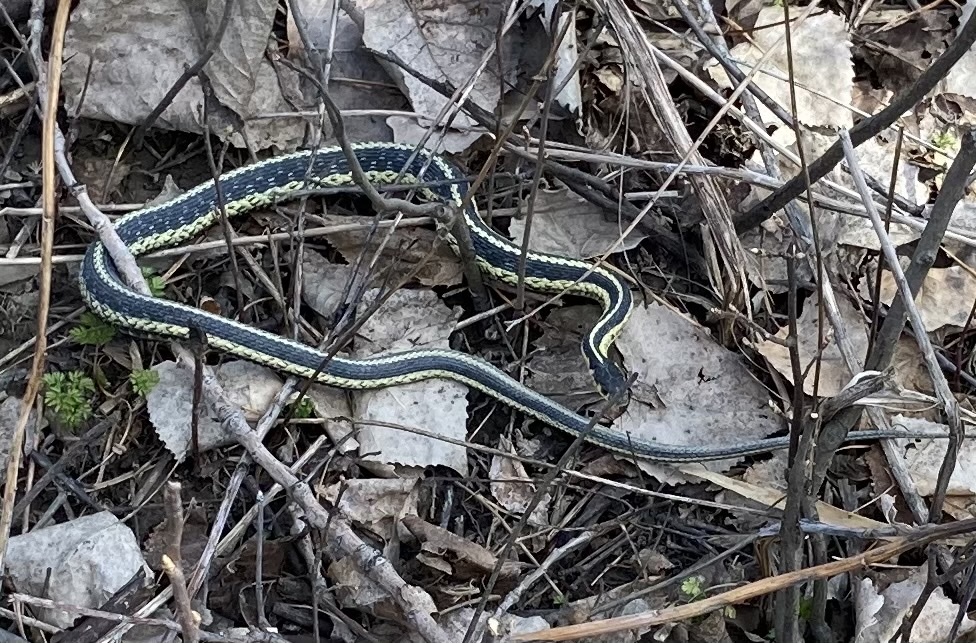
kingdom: Animalia
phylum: Chordata
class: Squamata
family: Colubridae
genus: Thamnophis
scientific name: Thamnophis sirtalis
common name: Common garter snake
